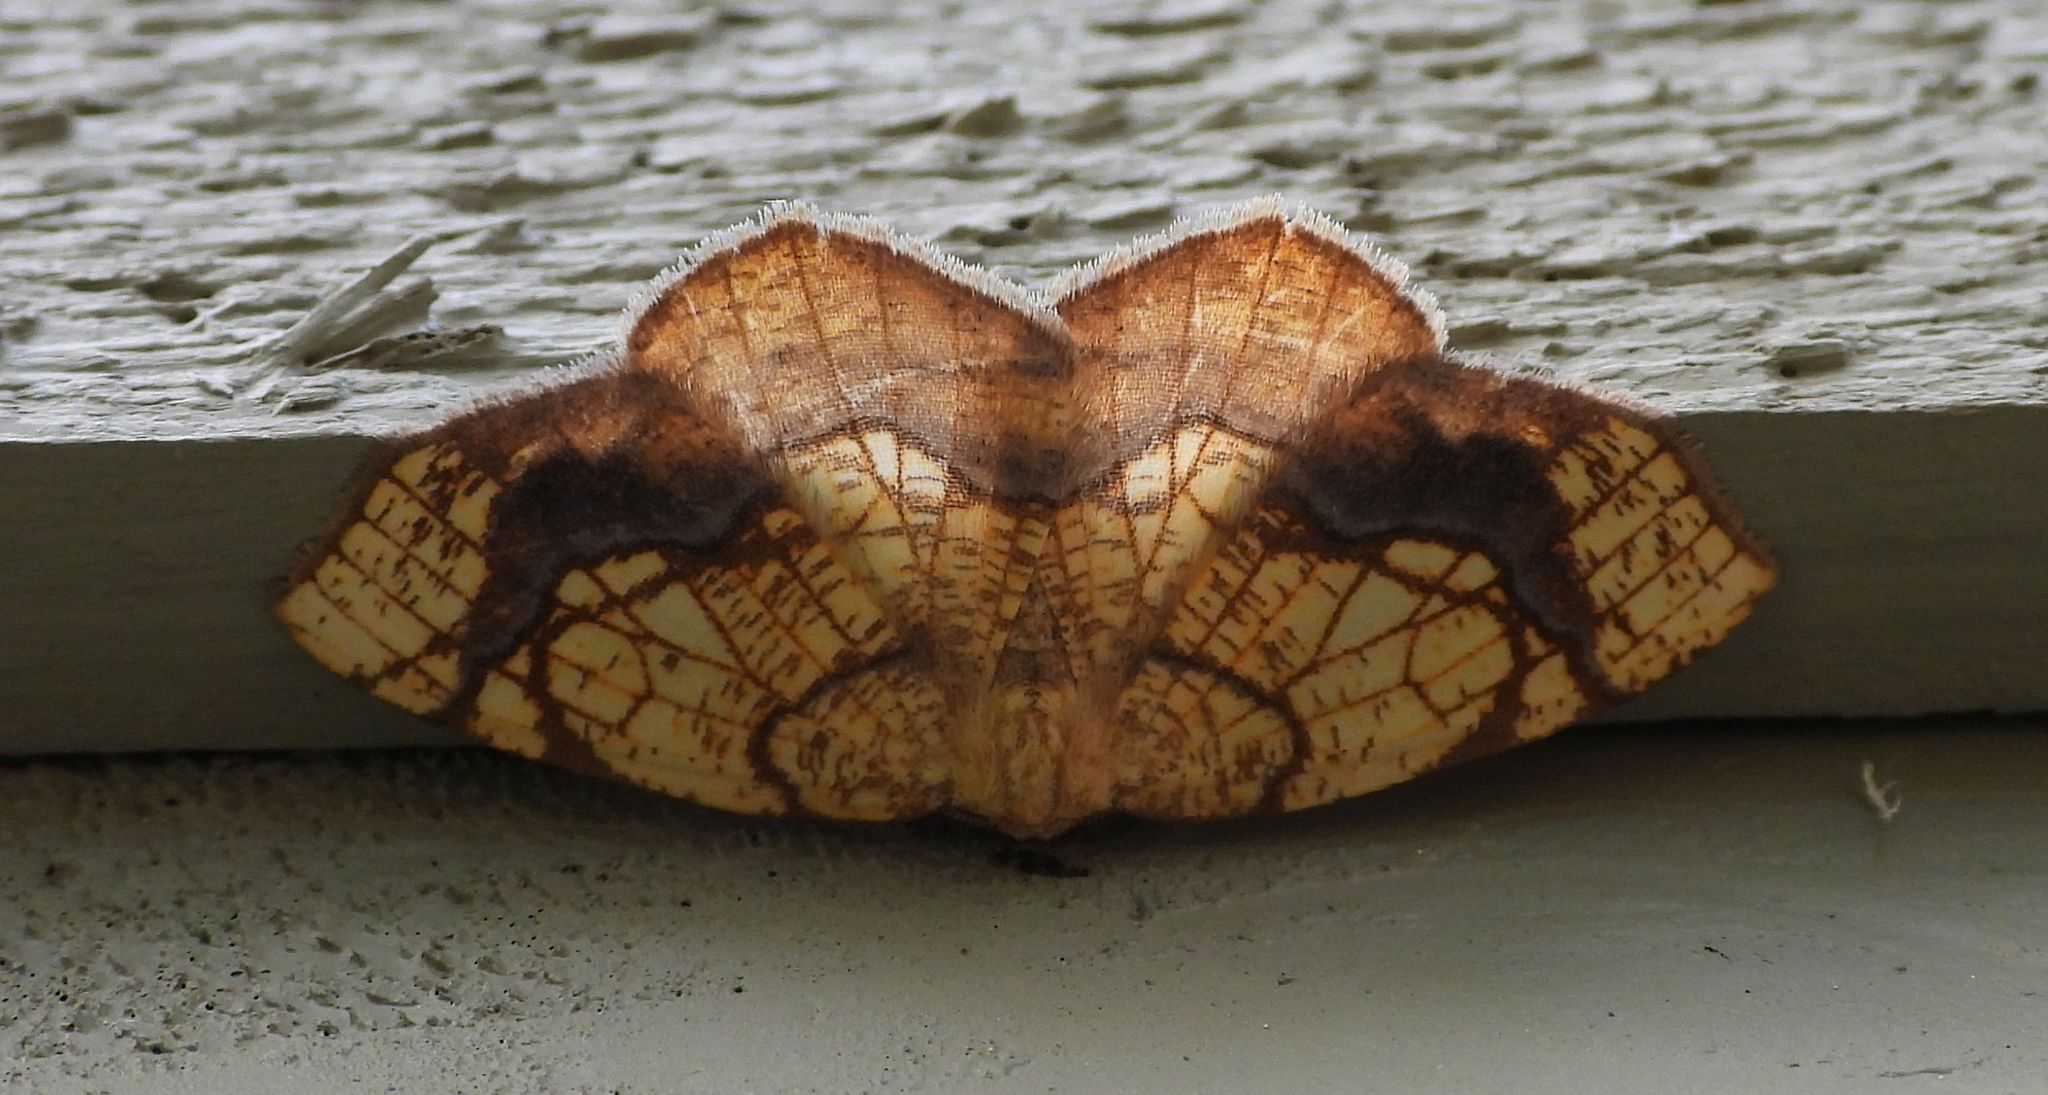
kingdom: Animalia
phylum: Arthropoda
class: Insecta
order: Lepidoptera
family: Geometridae
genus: Nematocampa
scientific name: Nematocampa resistaria
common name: Horned spanworm moth
